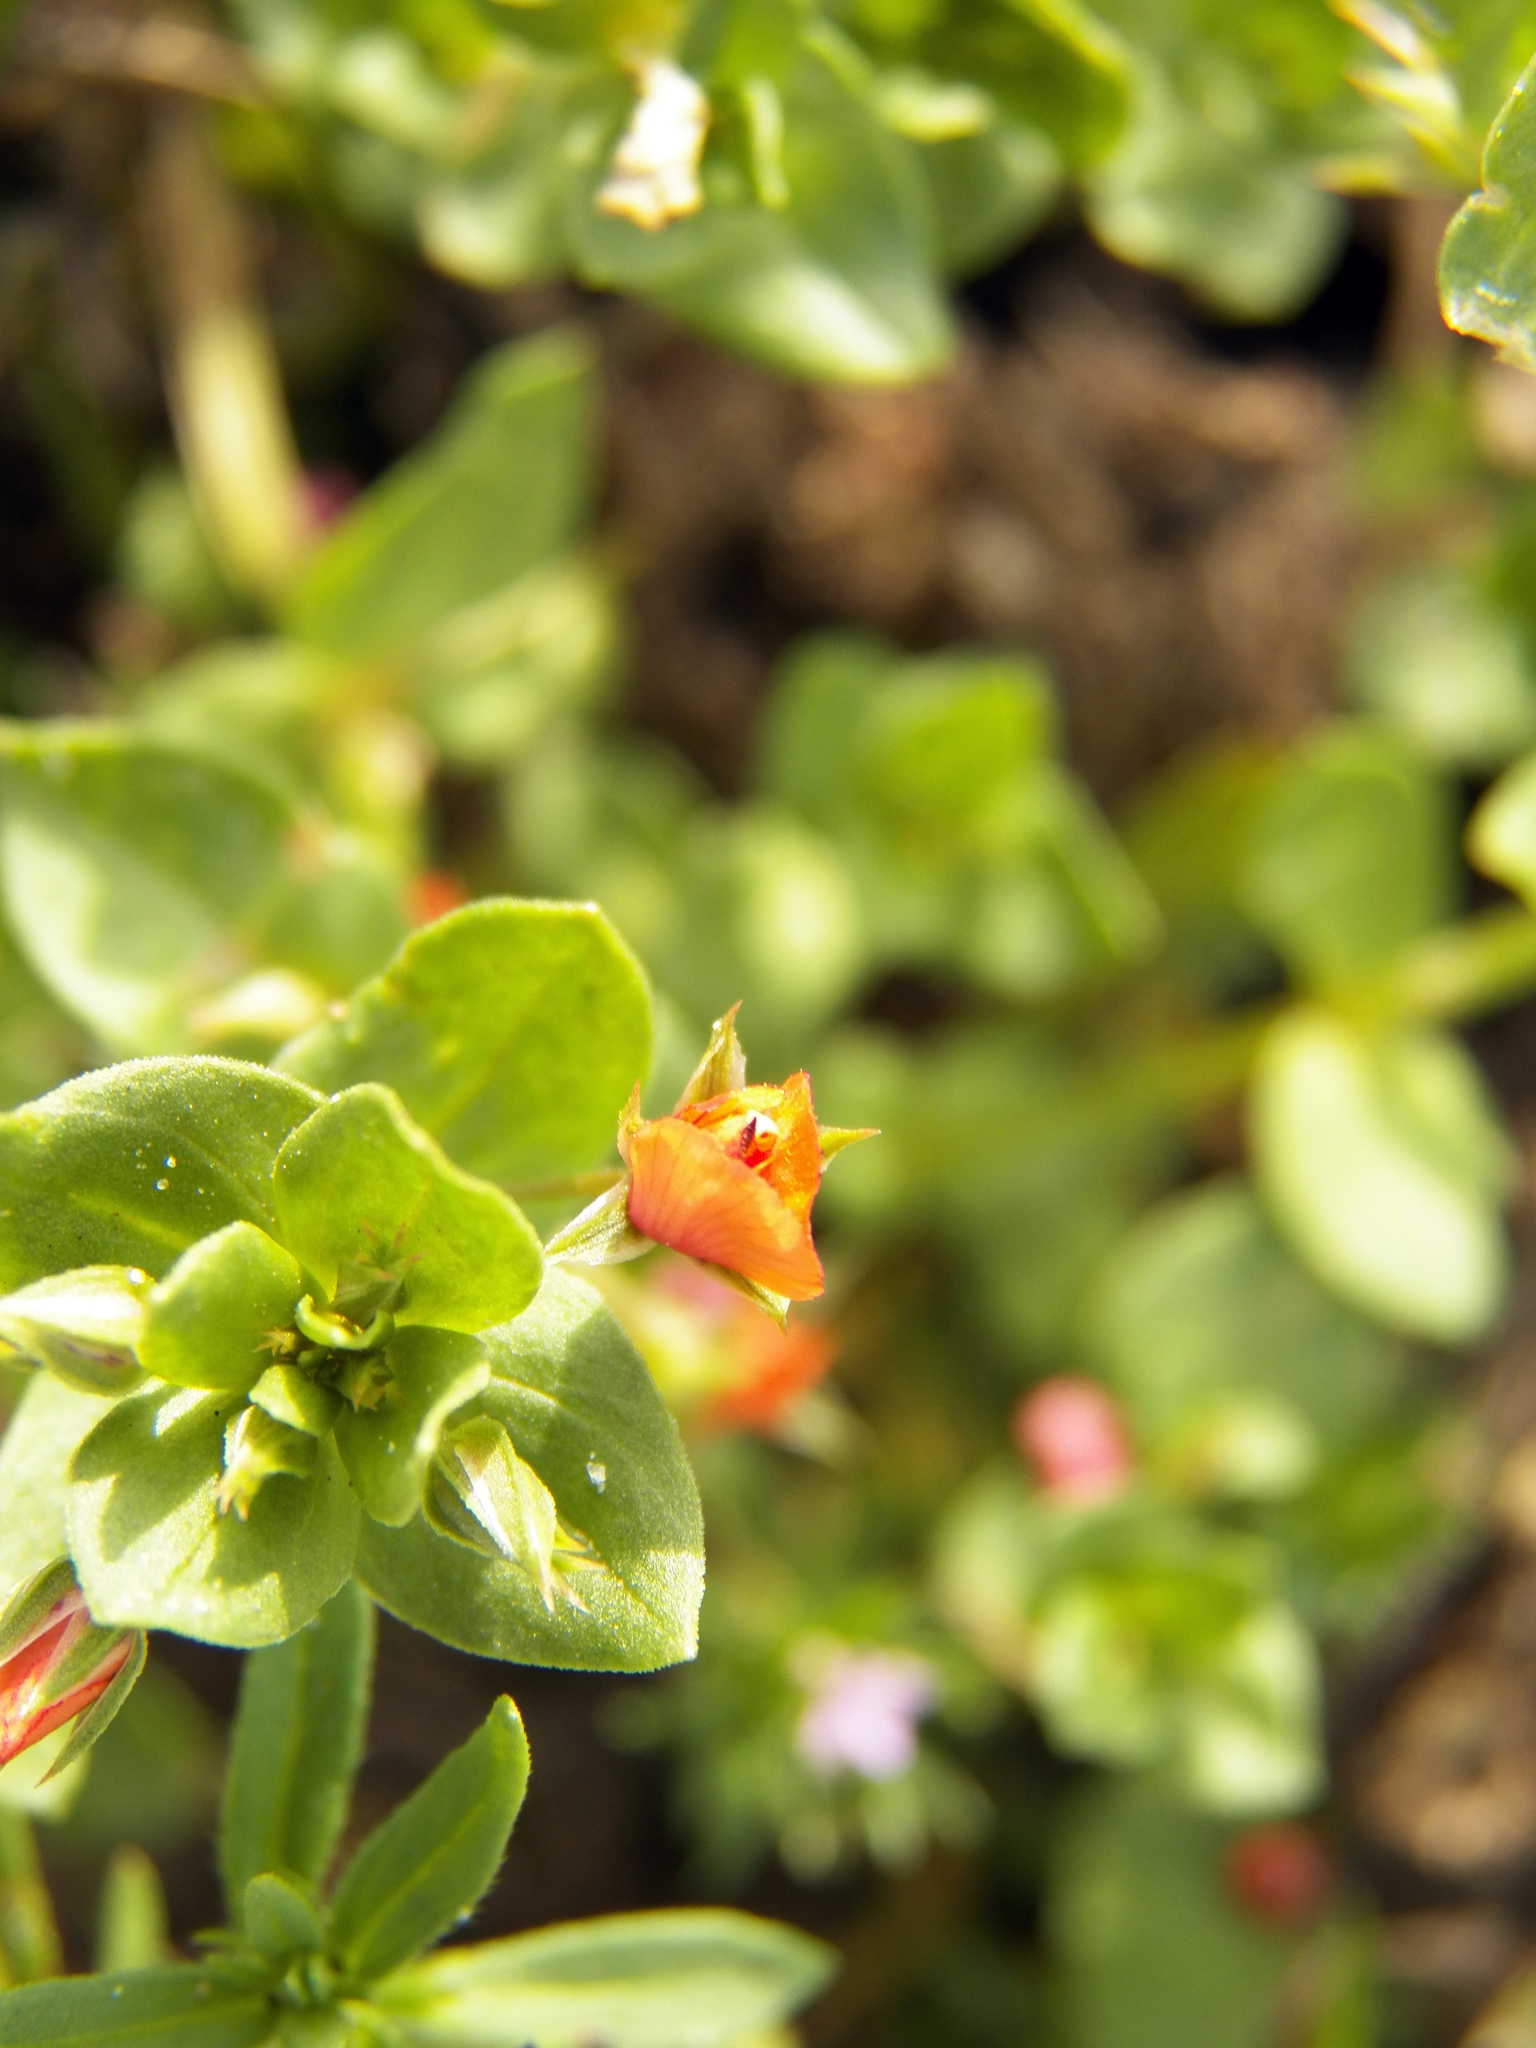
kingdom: Plantae
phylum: Tracheophyta
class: Magnoliopsida
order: Ericales
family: Primulaceae
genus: Lysimachia
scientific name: Lysimachia arvensis
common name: Scarlet pimpernel
